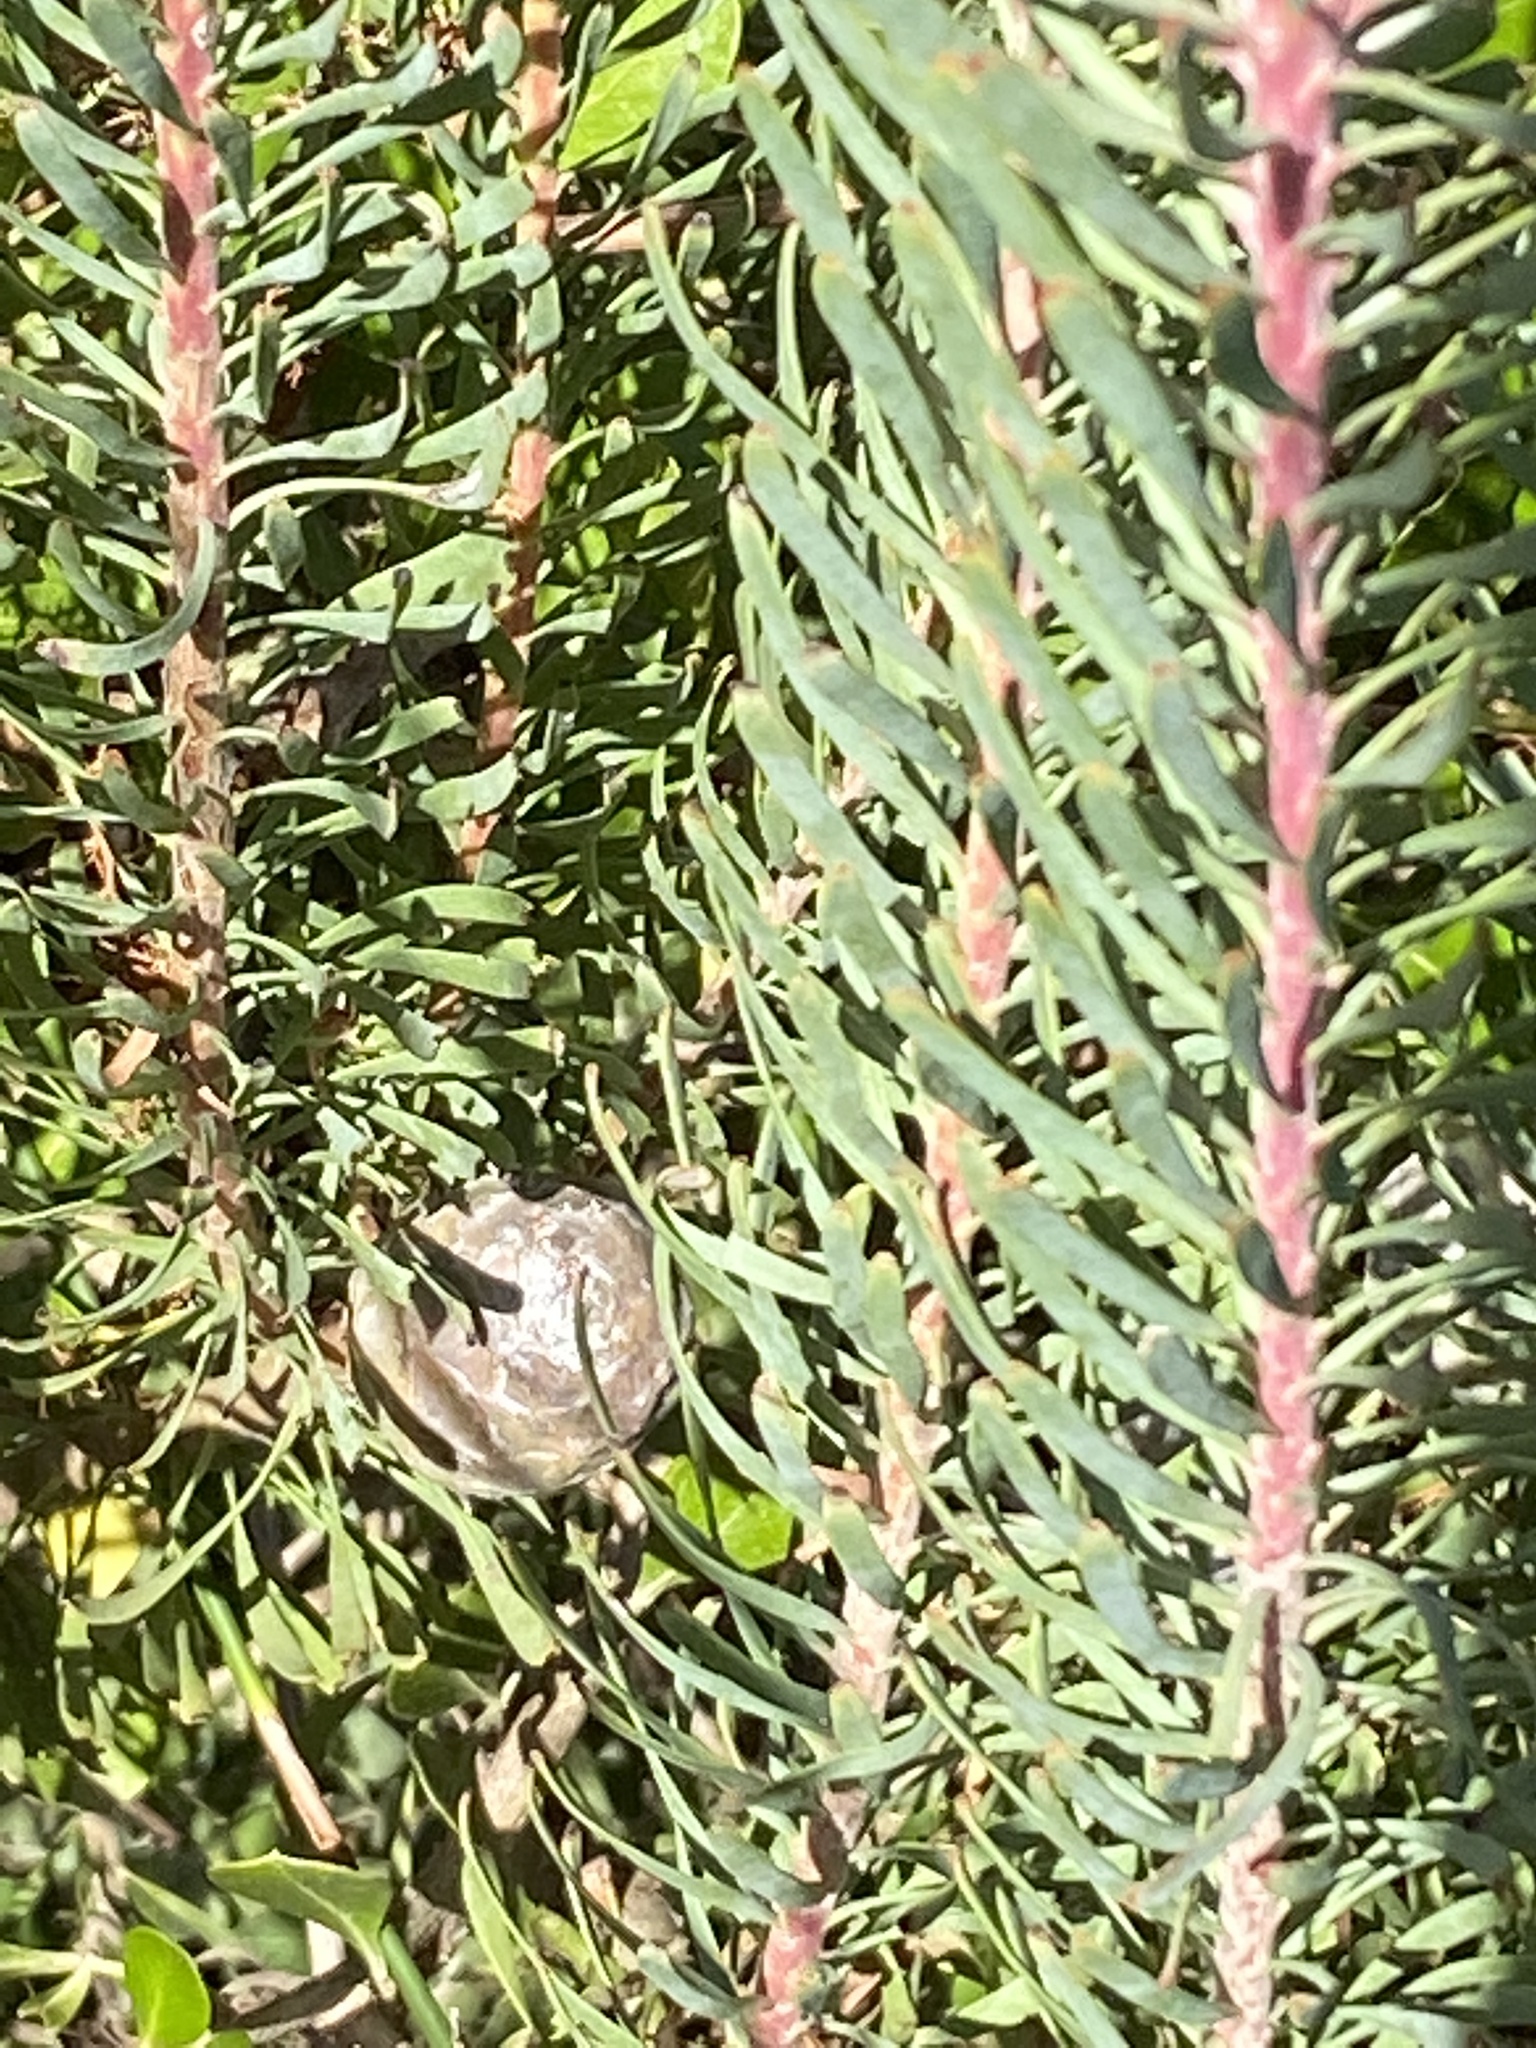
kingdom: Plantae
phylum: Tracheophyta
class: Magnoliopsida
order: Proteales
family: Proteaceae
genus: Leucadendron
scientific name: Leucadendron galpinii
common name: Hairless conebush
